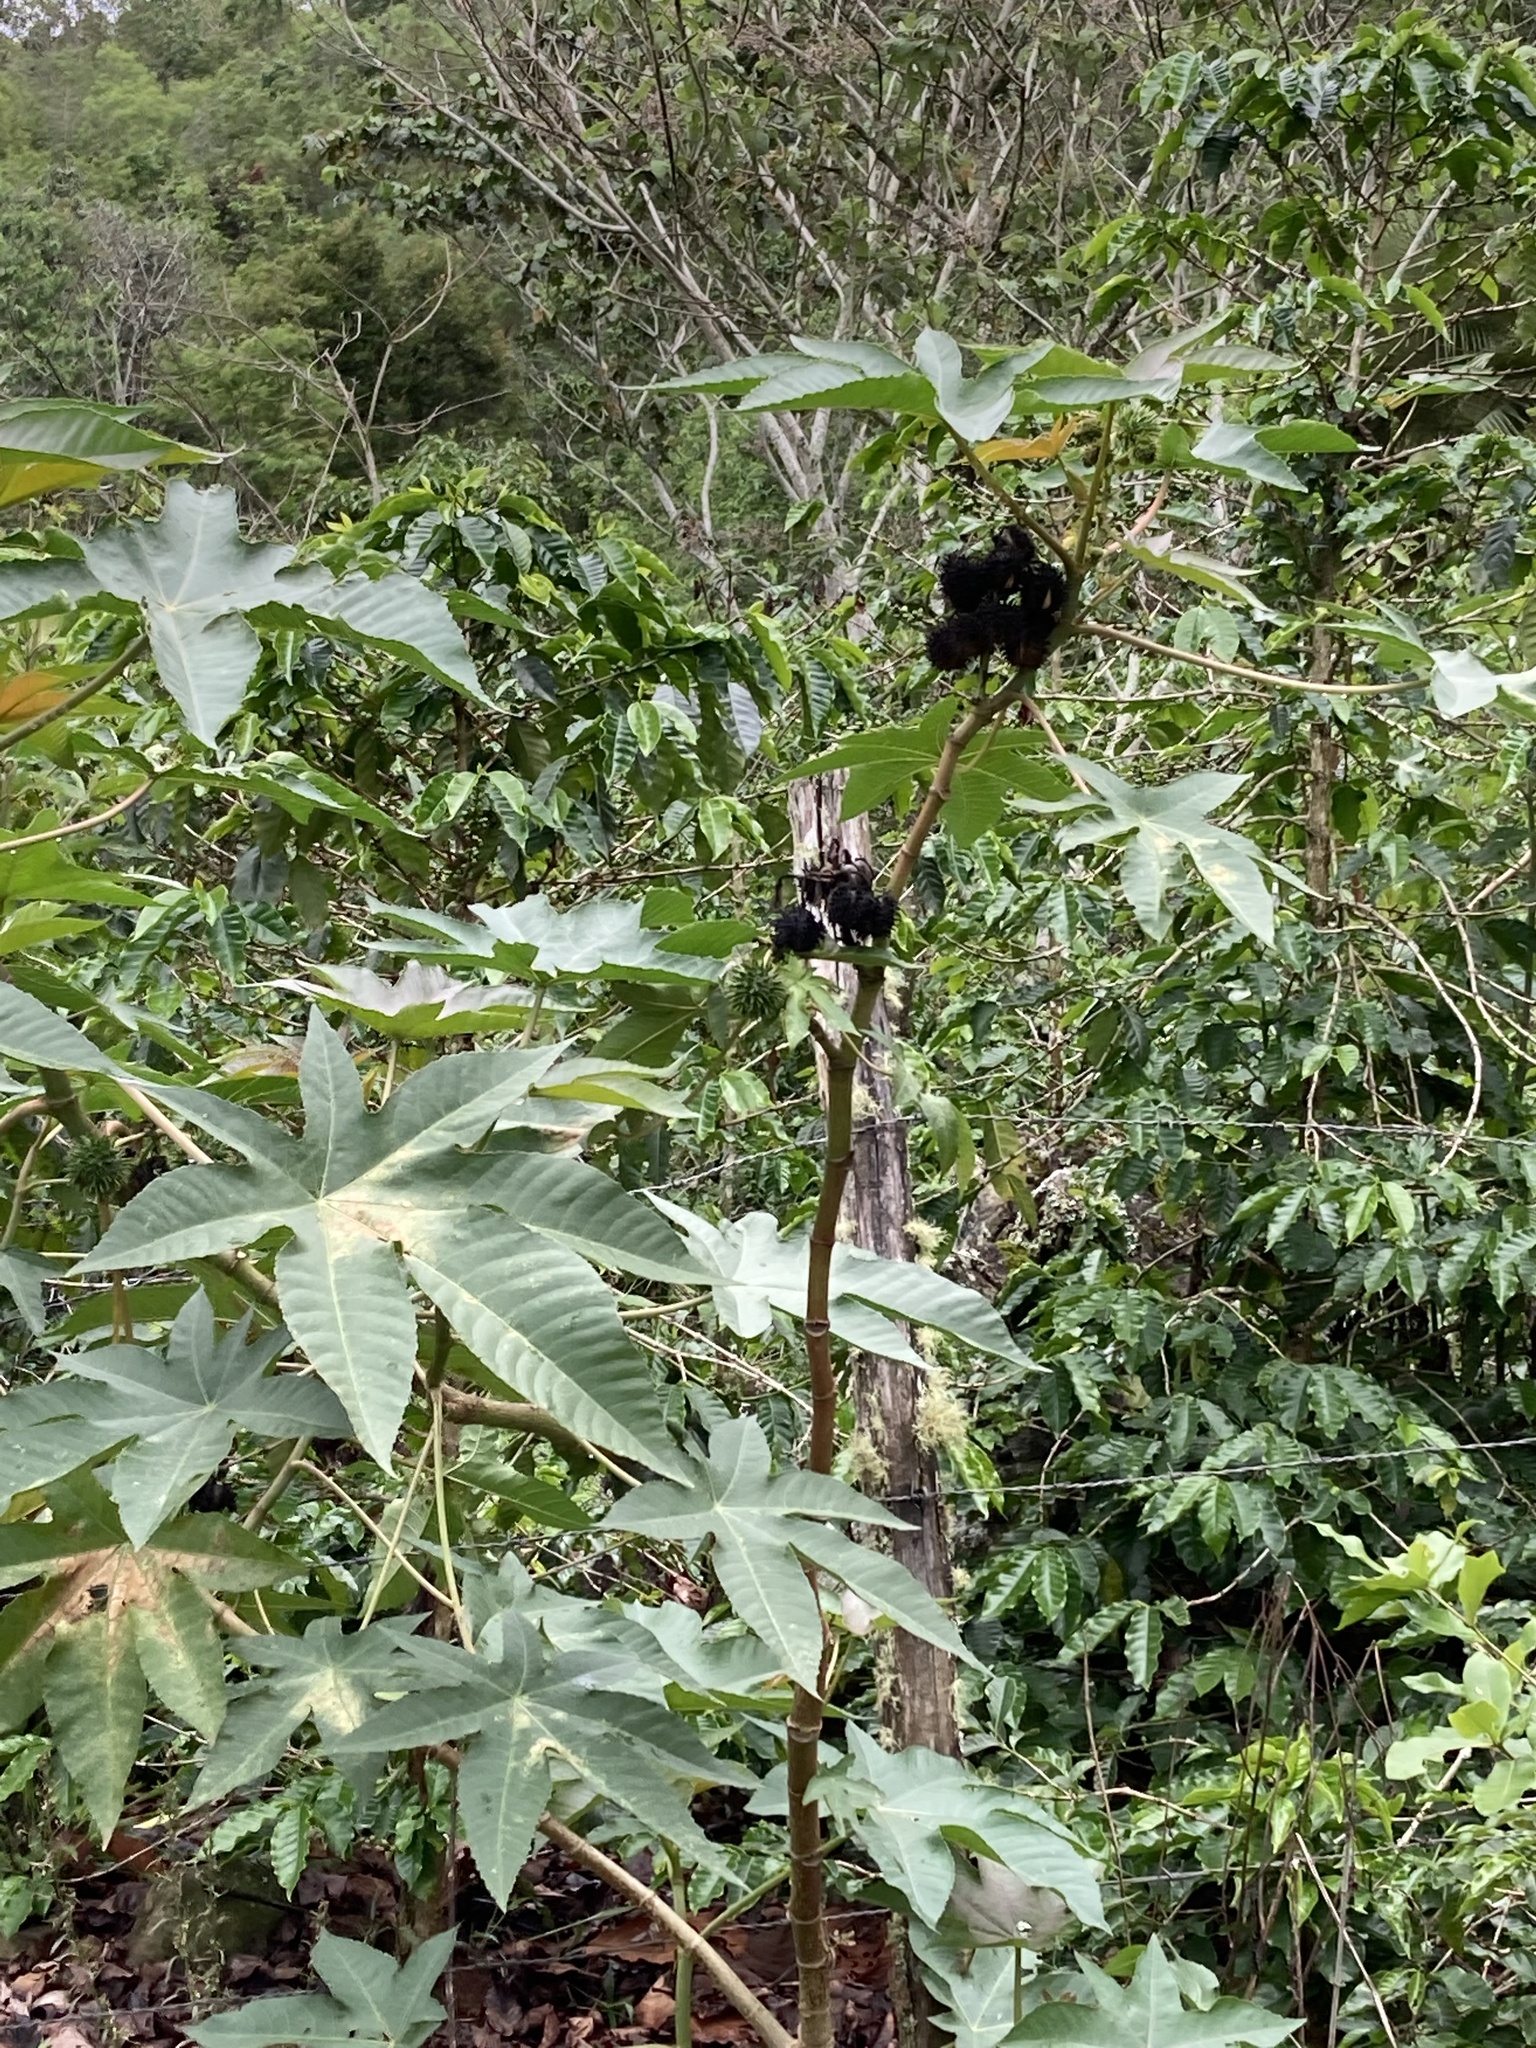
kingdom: Plantae
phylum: Tracheophyta
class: Magnoliopsida
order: Malpighiales
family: Euphorbiaceae
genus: Ricinus
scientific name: Ricinus communis
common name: Castor-oil-plant
